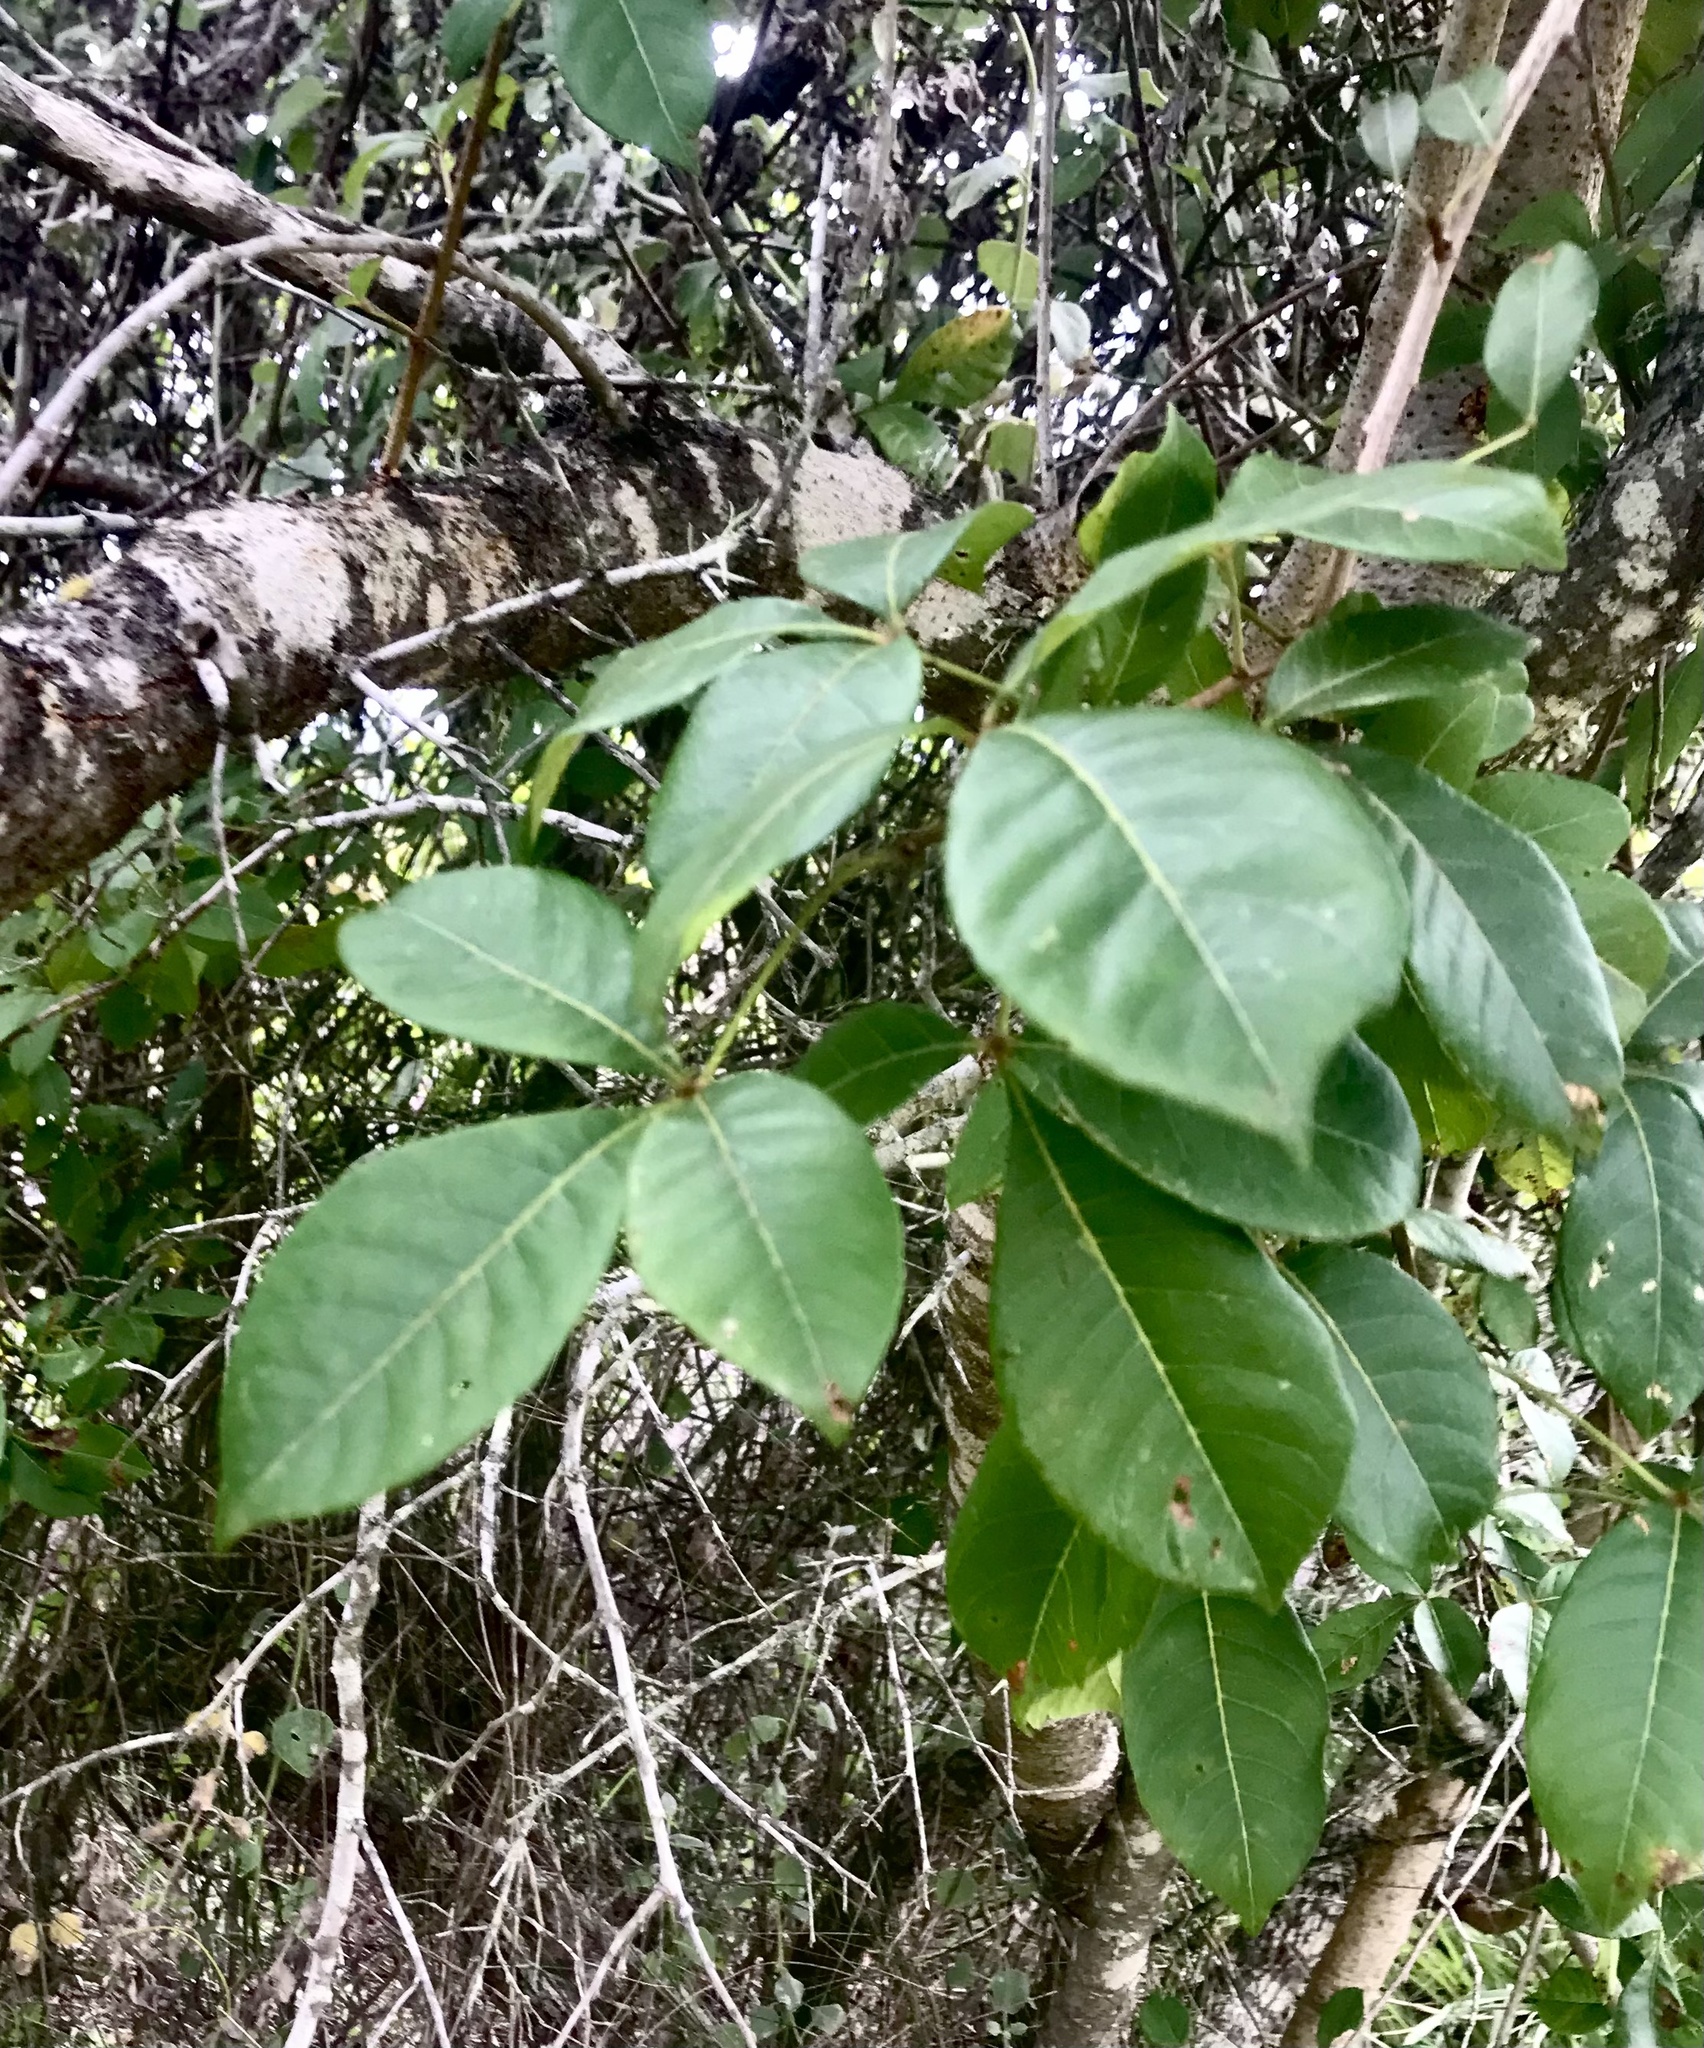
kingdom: Plantae
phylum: Tracheophyta
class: Magnoliopsida
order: Sapindales
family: Anacardiaceae
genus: Searsia
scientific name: Searsia chirindensis
